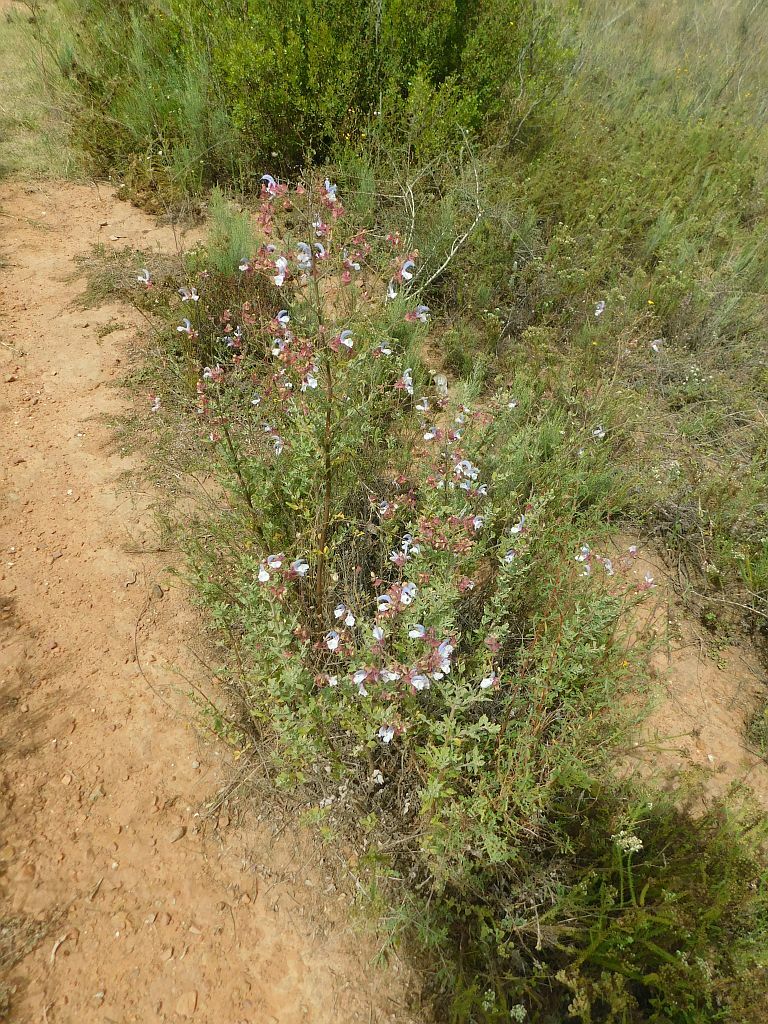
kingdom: Plantae
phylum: Tracheophyta
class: Magnoliopsida
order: Lamiales
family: Lamiaceae
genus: Salvia
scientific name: Salvia chamelaeagnea
